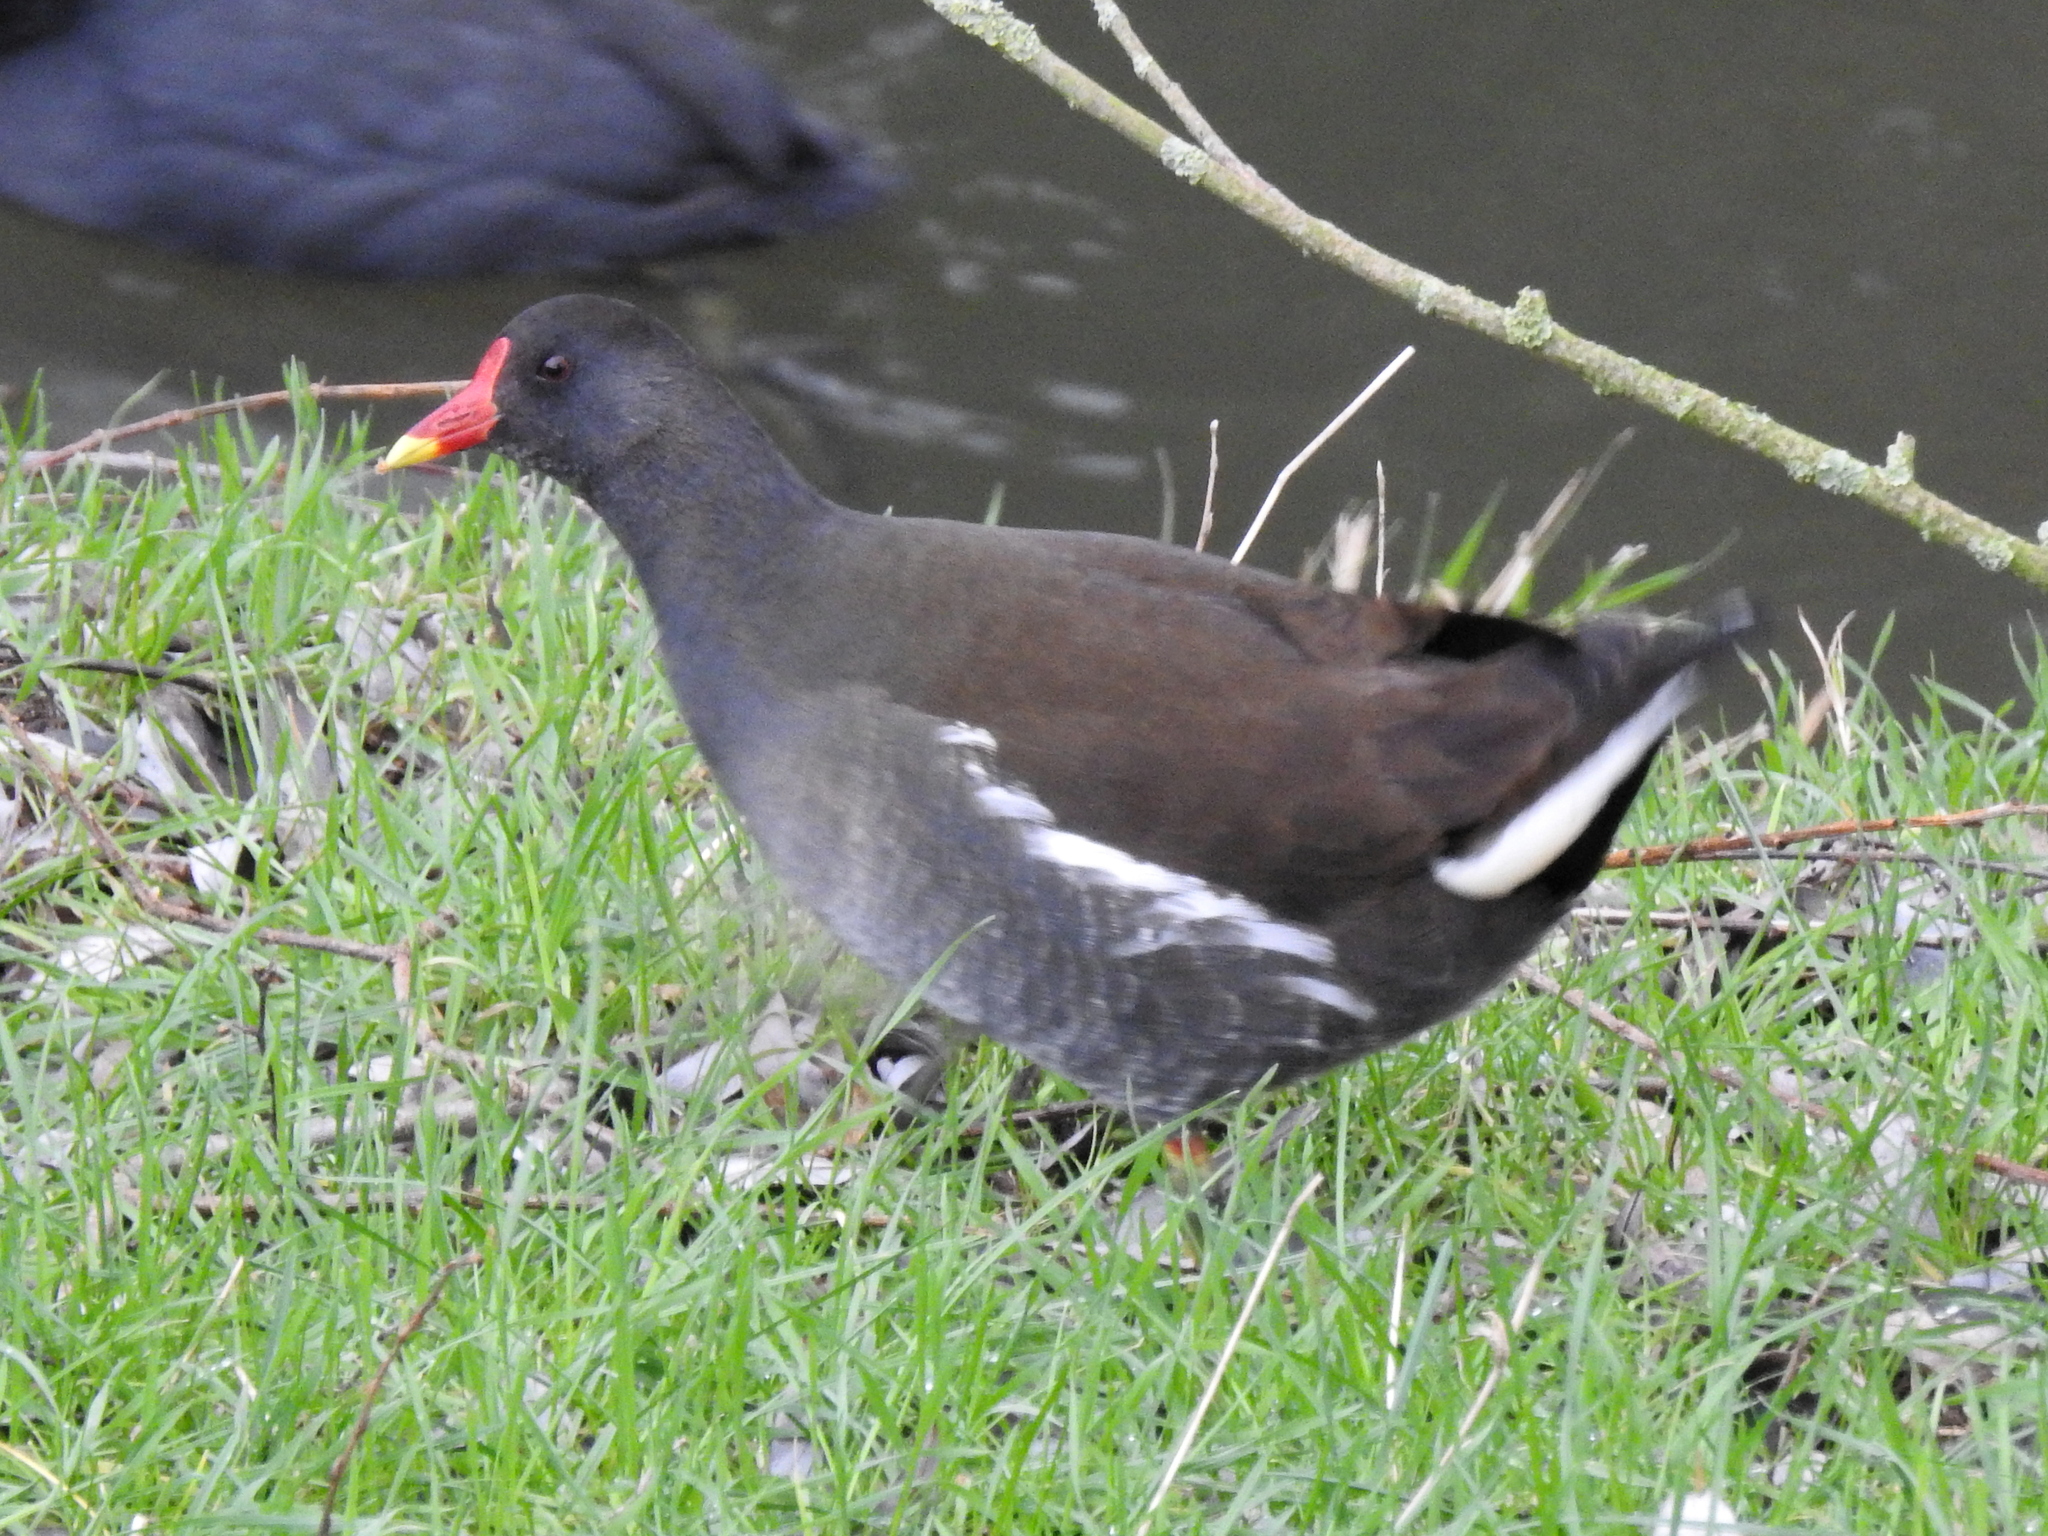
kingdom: Animalia
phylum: Chordata
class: Aves
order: Gruiformes
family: Rallidae
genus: Gallinula
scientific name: Gallinula chloropus
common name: Common moorhen
